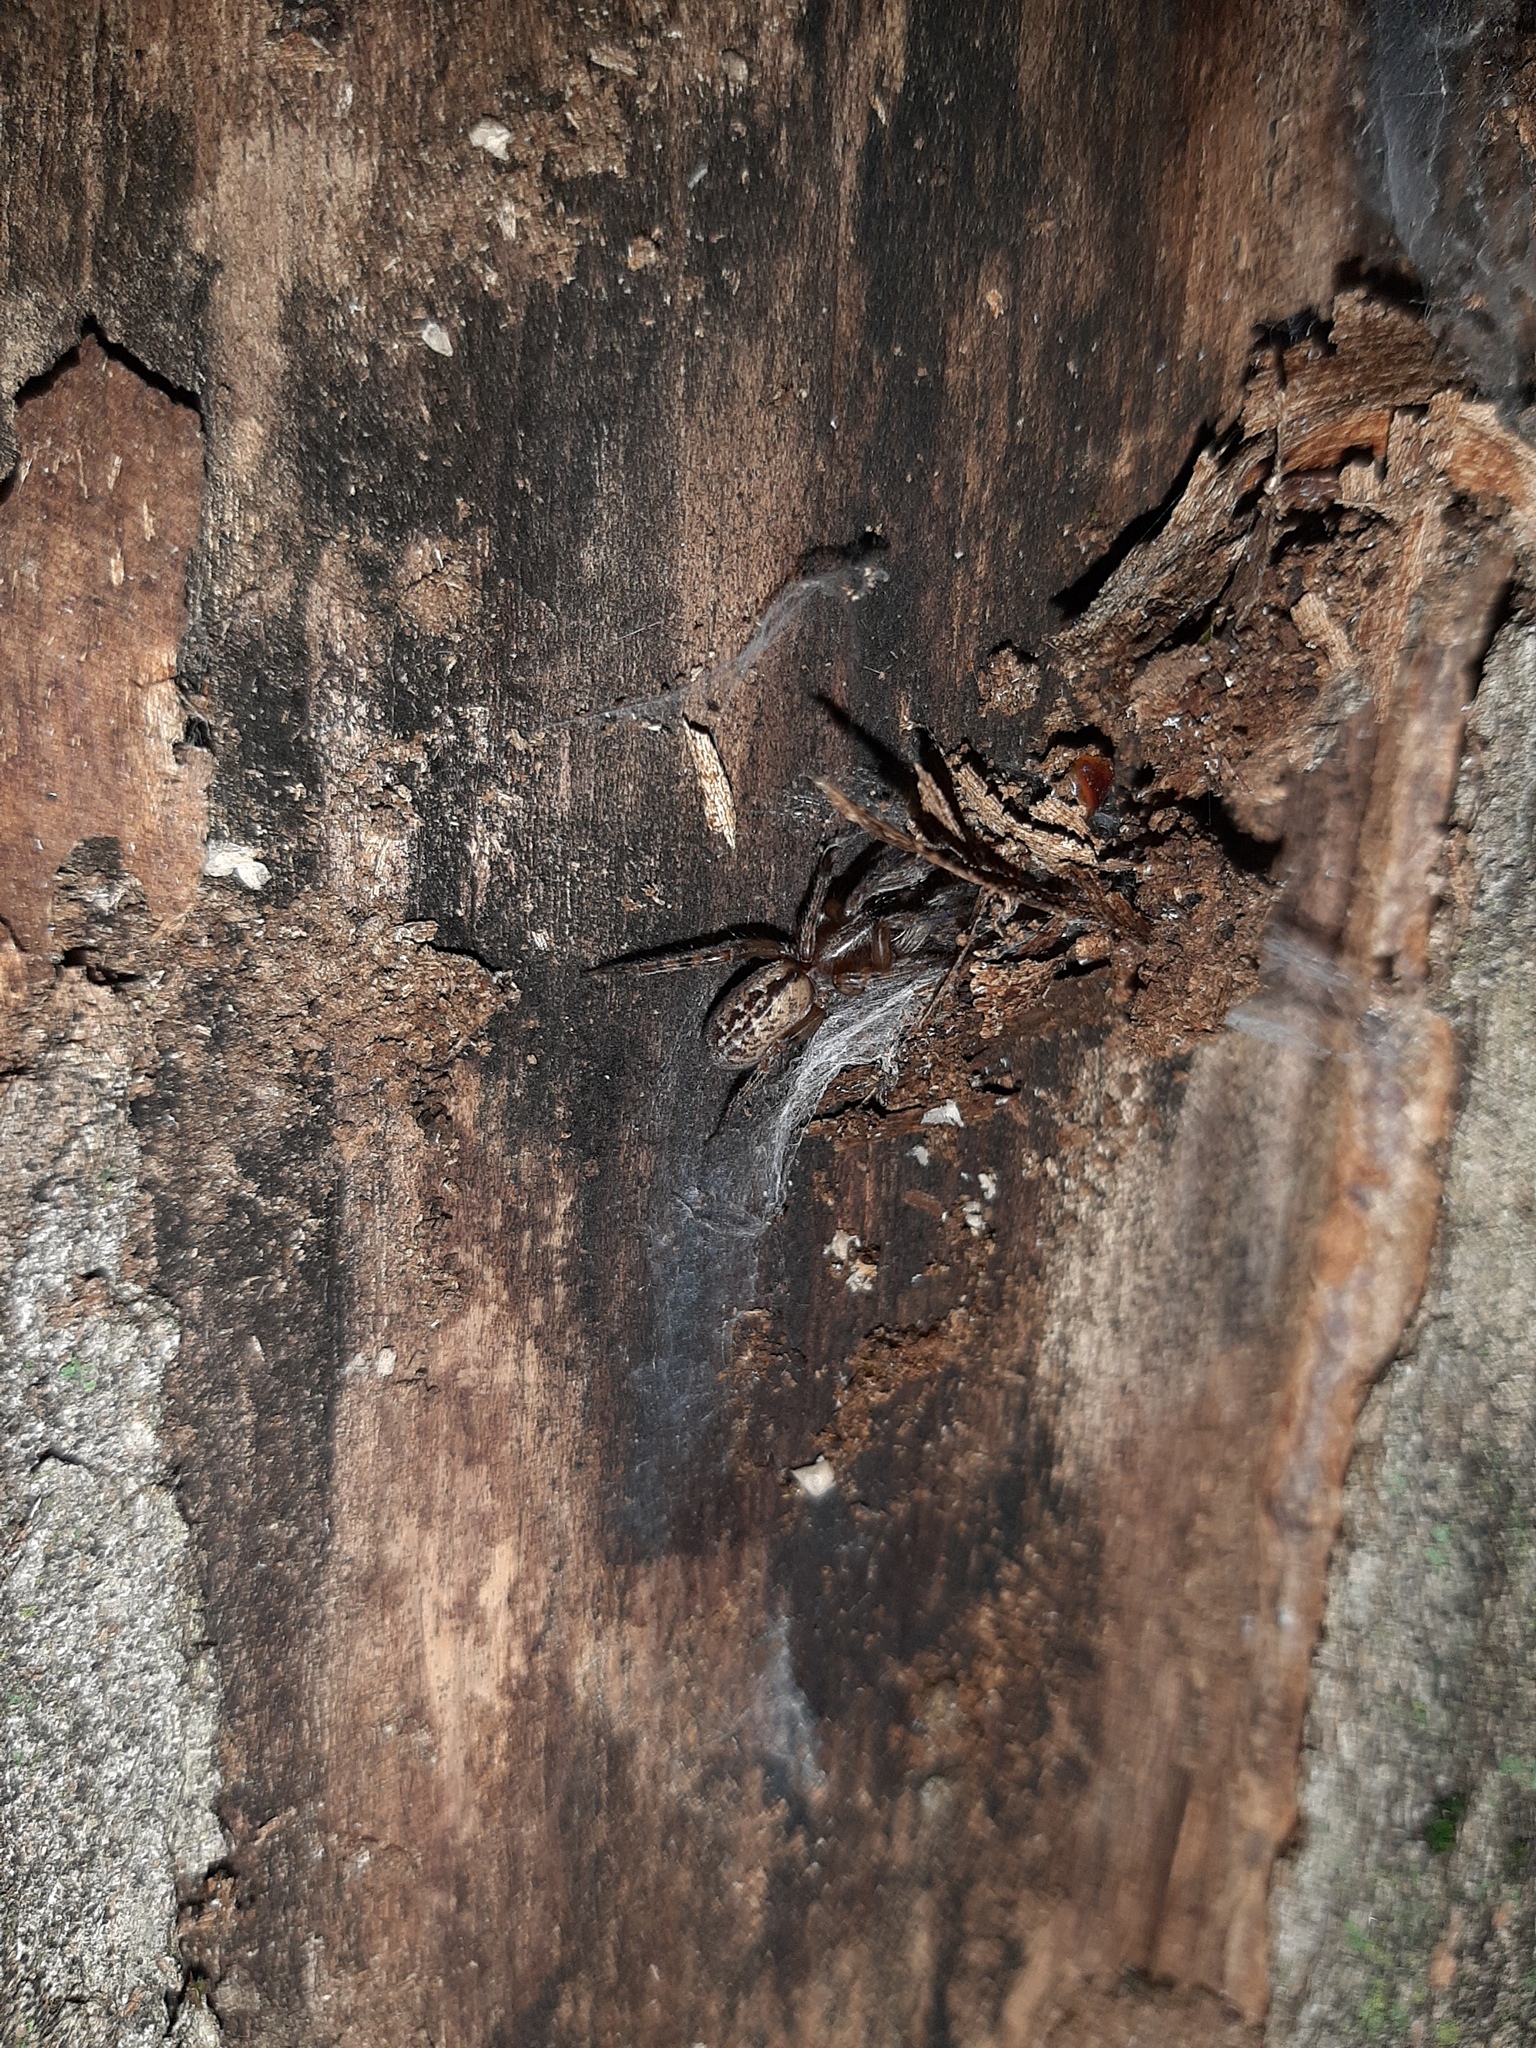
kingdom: Animalia
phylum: Arthropoda
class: Arachnida
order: Araneae
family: Segestriidae
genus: Segestria
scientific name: Segestria bavarica
